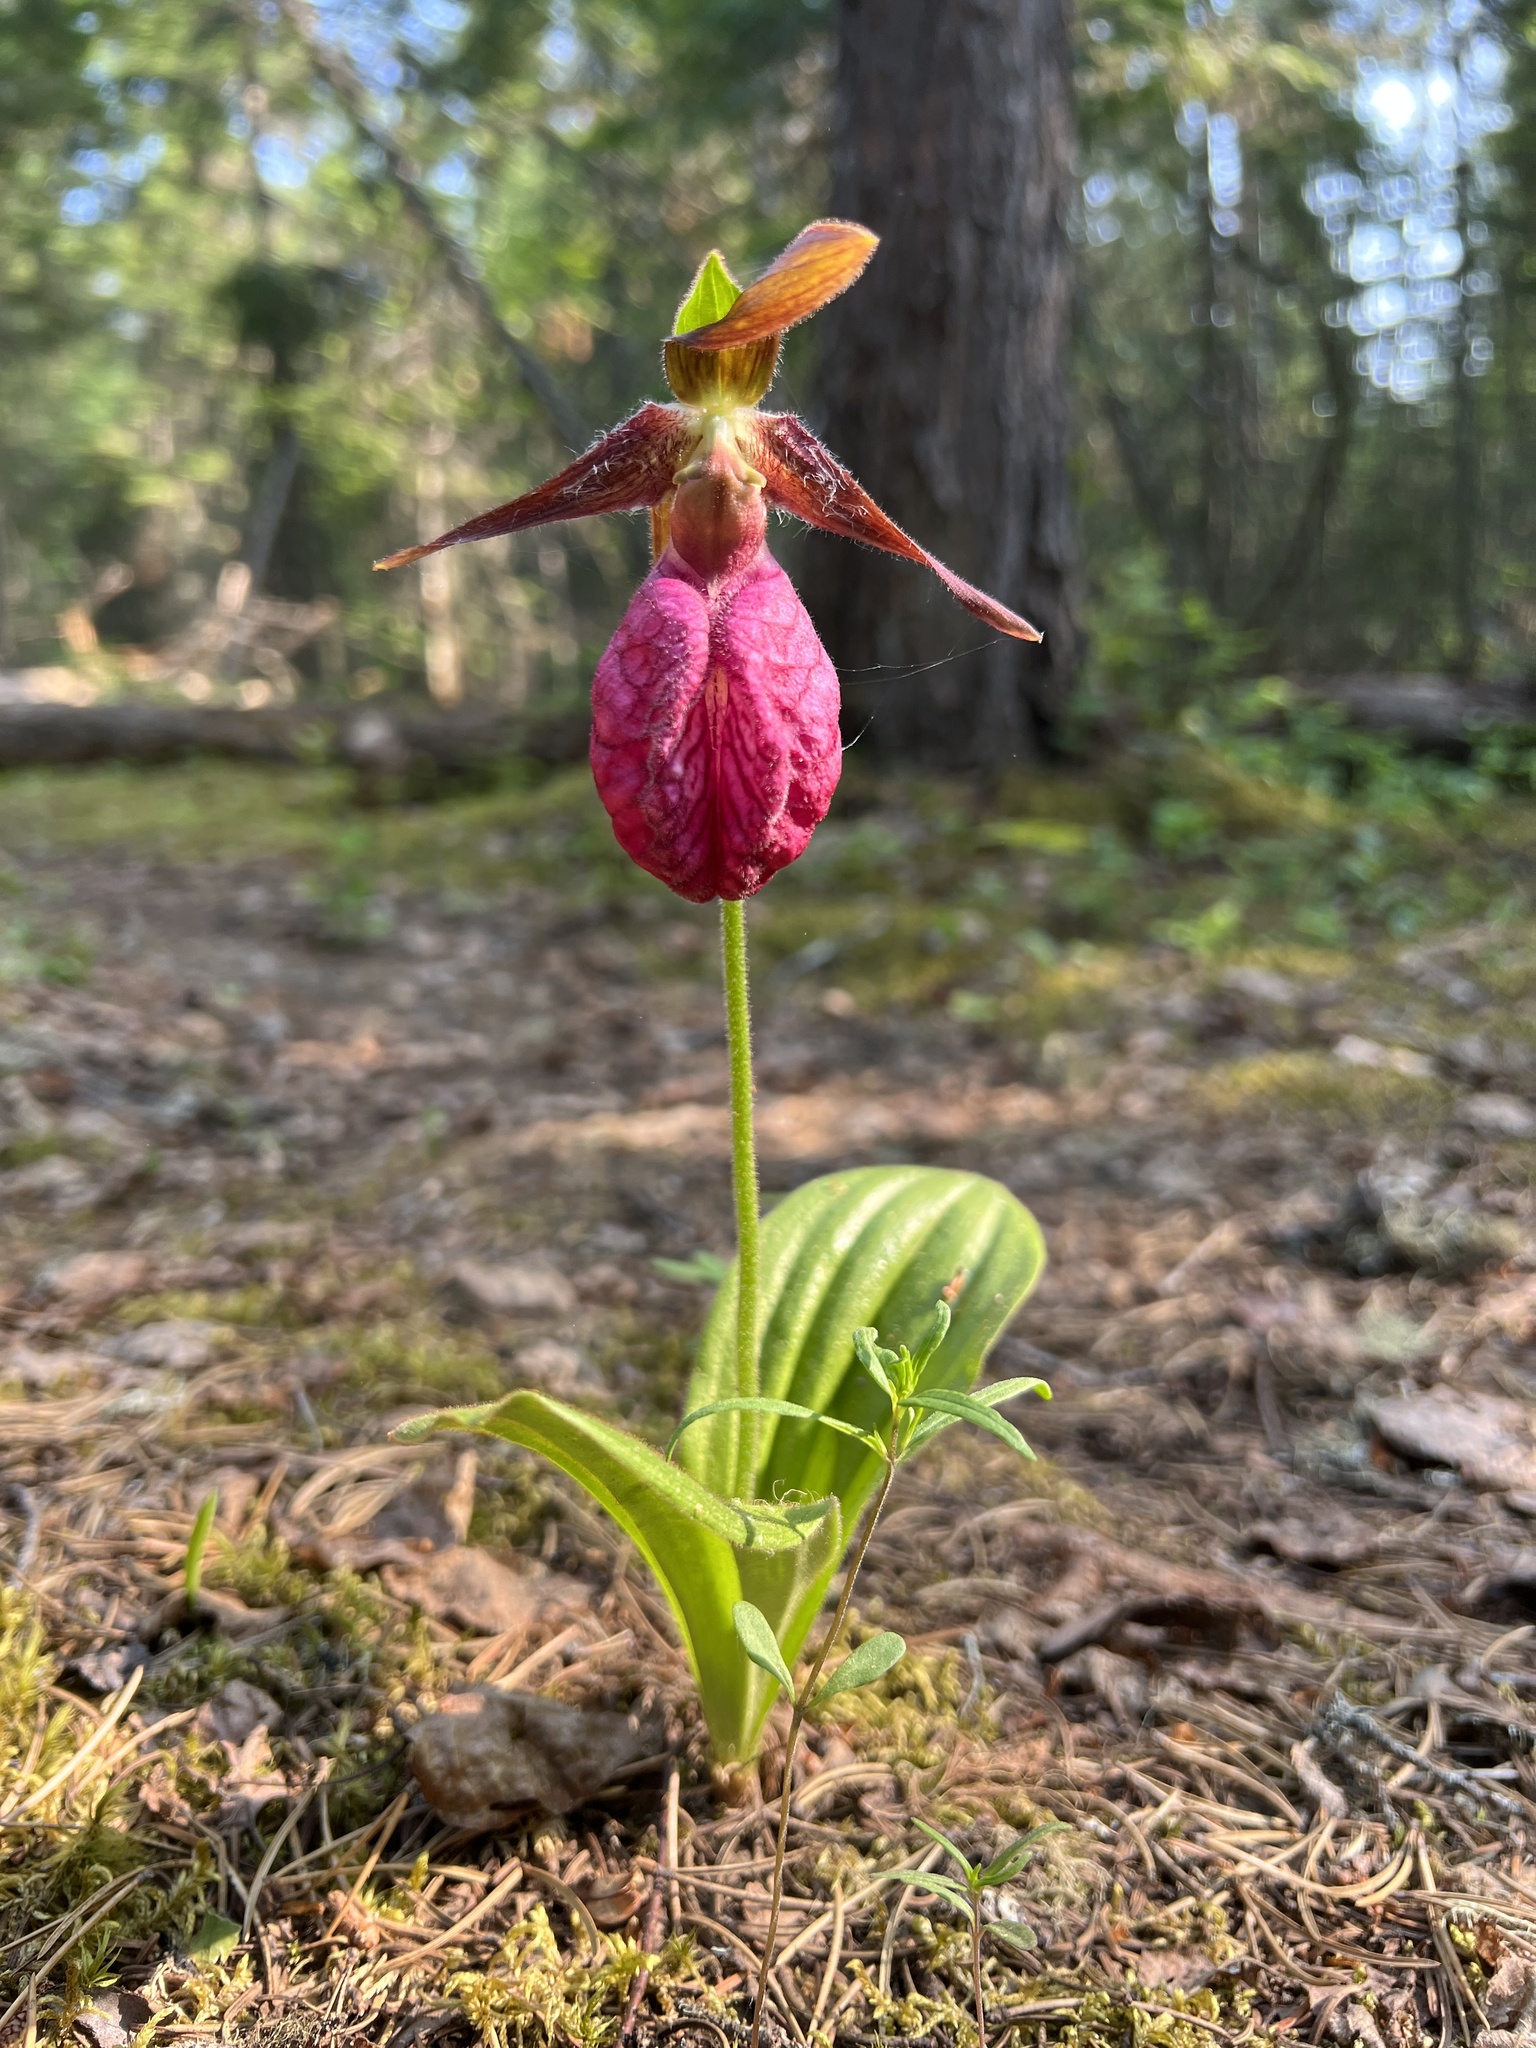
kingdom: Plantae
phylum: Tracheophyta
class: Liliopsida
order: Asparagales
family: Orchidaceae
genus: Cypripedium
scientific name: Cypripedium acaule
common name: Pink lady's-slipper
